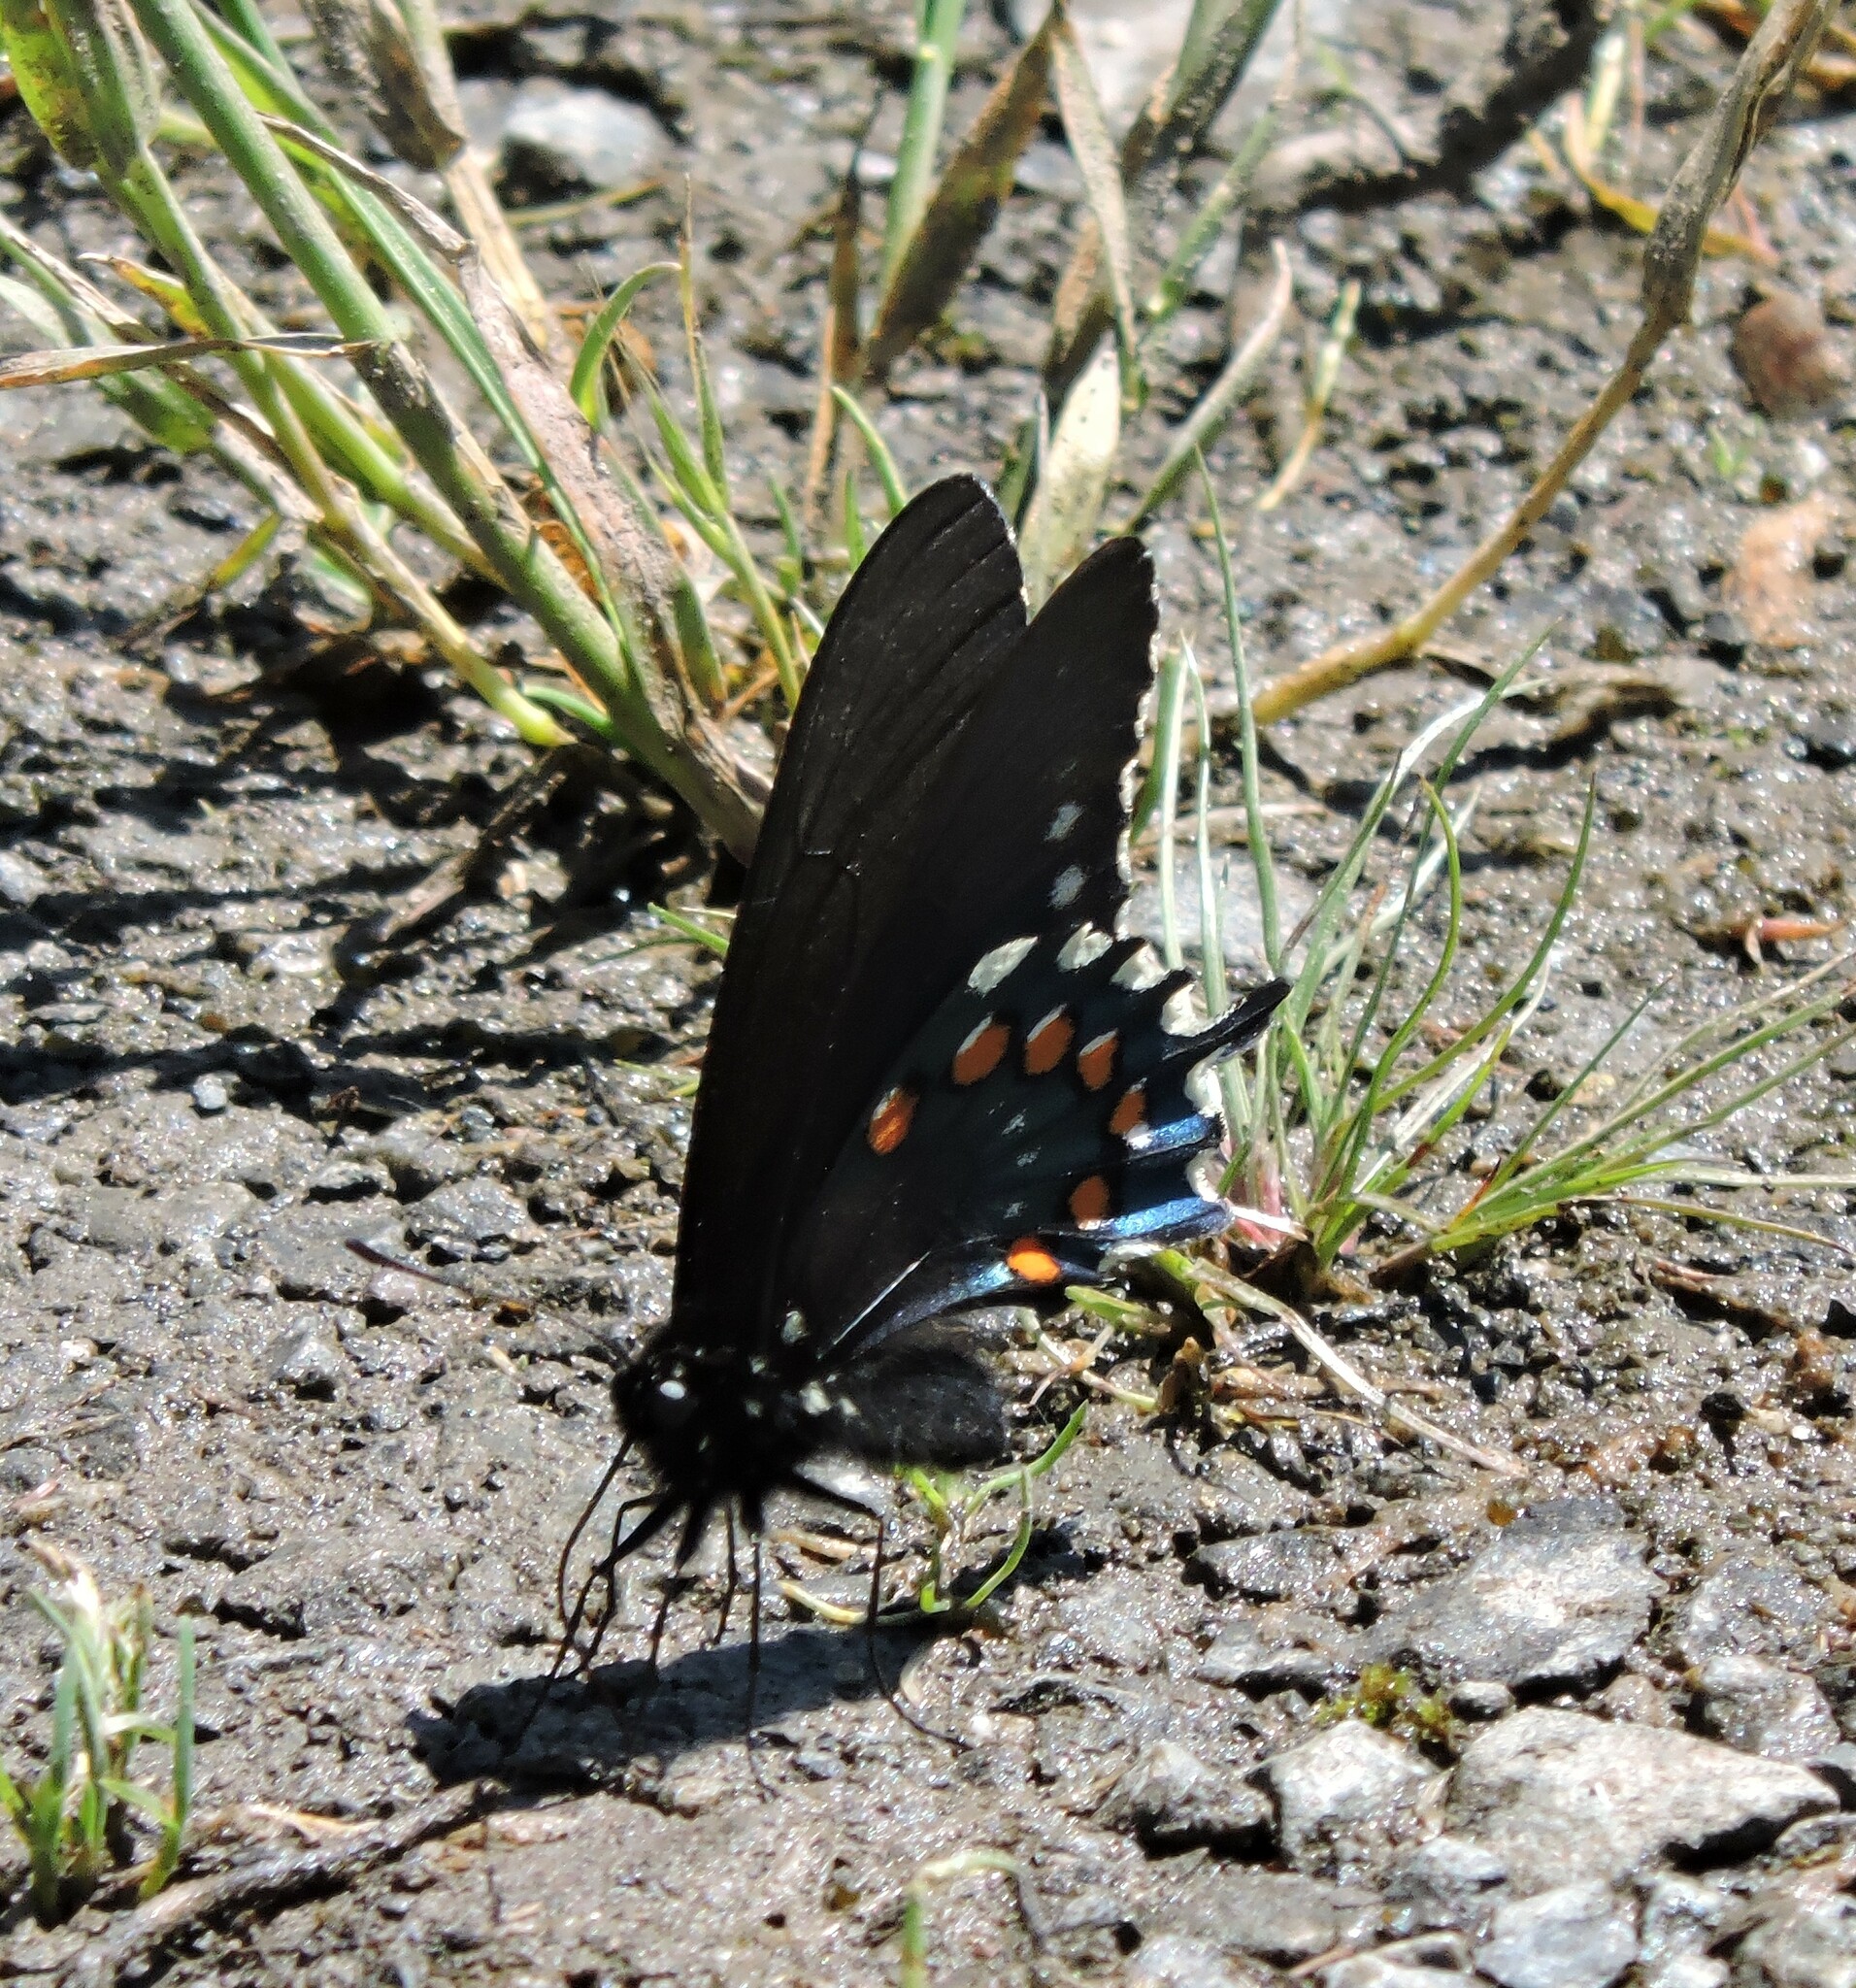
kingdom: Animalia
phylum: Arthropoda
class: Insecta
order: Lepidoptera
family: Papilionidae
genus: Battus
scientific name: Battus philenor
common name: Pipevine swallowtail
